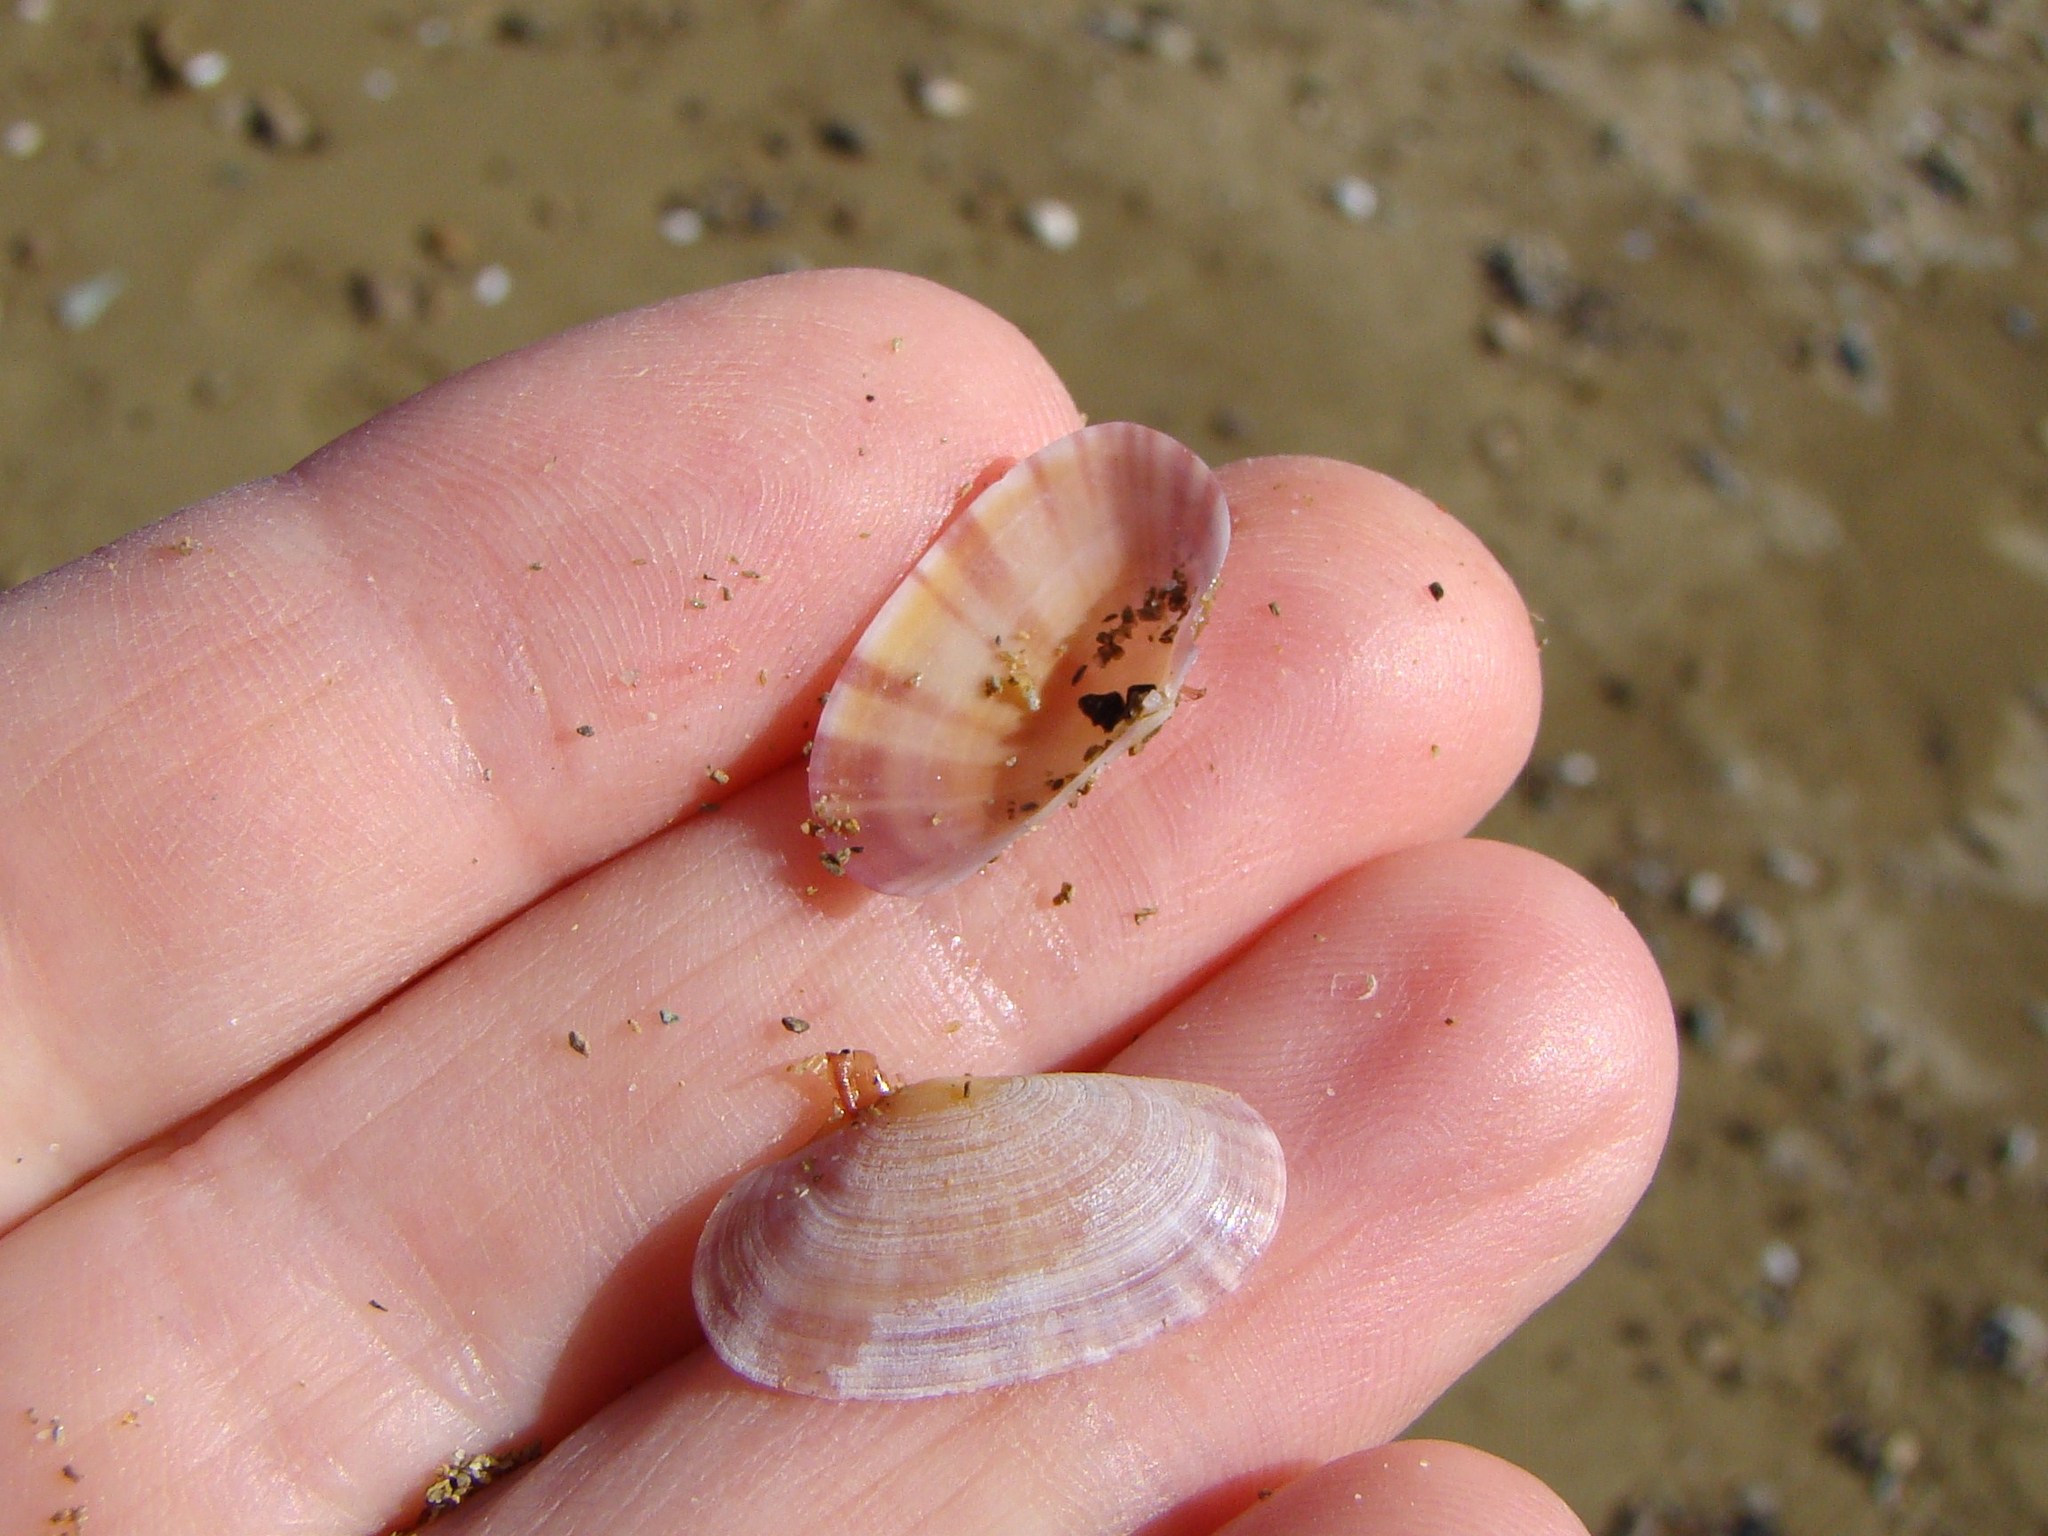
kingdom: Animalia
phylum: Mollusca
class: Bivalvia
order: Cardiida
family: Psammobiidae
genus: Gari
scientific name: Gari stangeri
